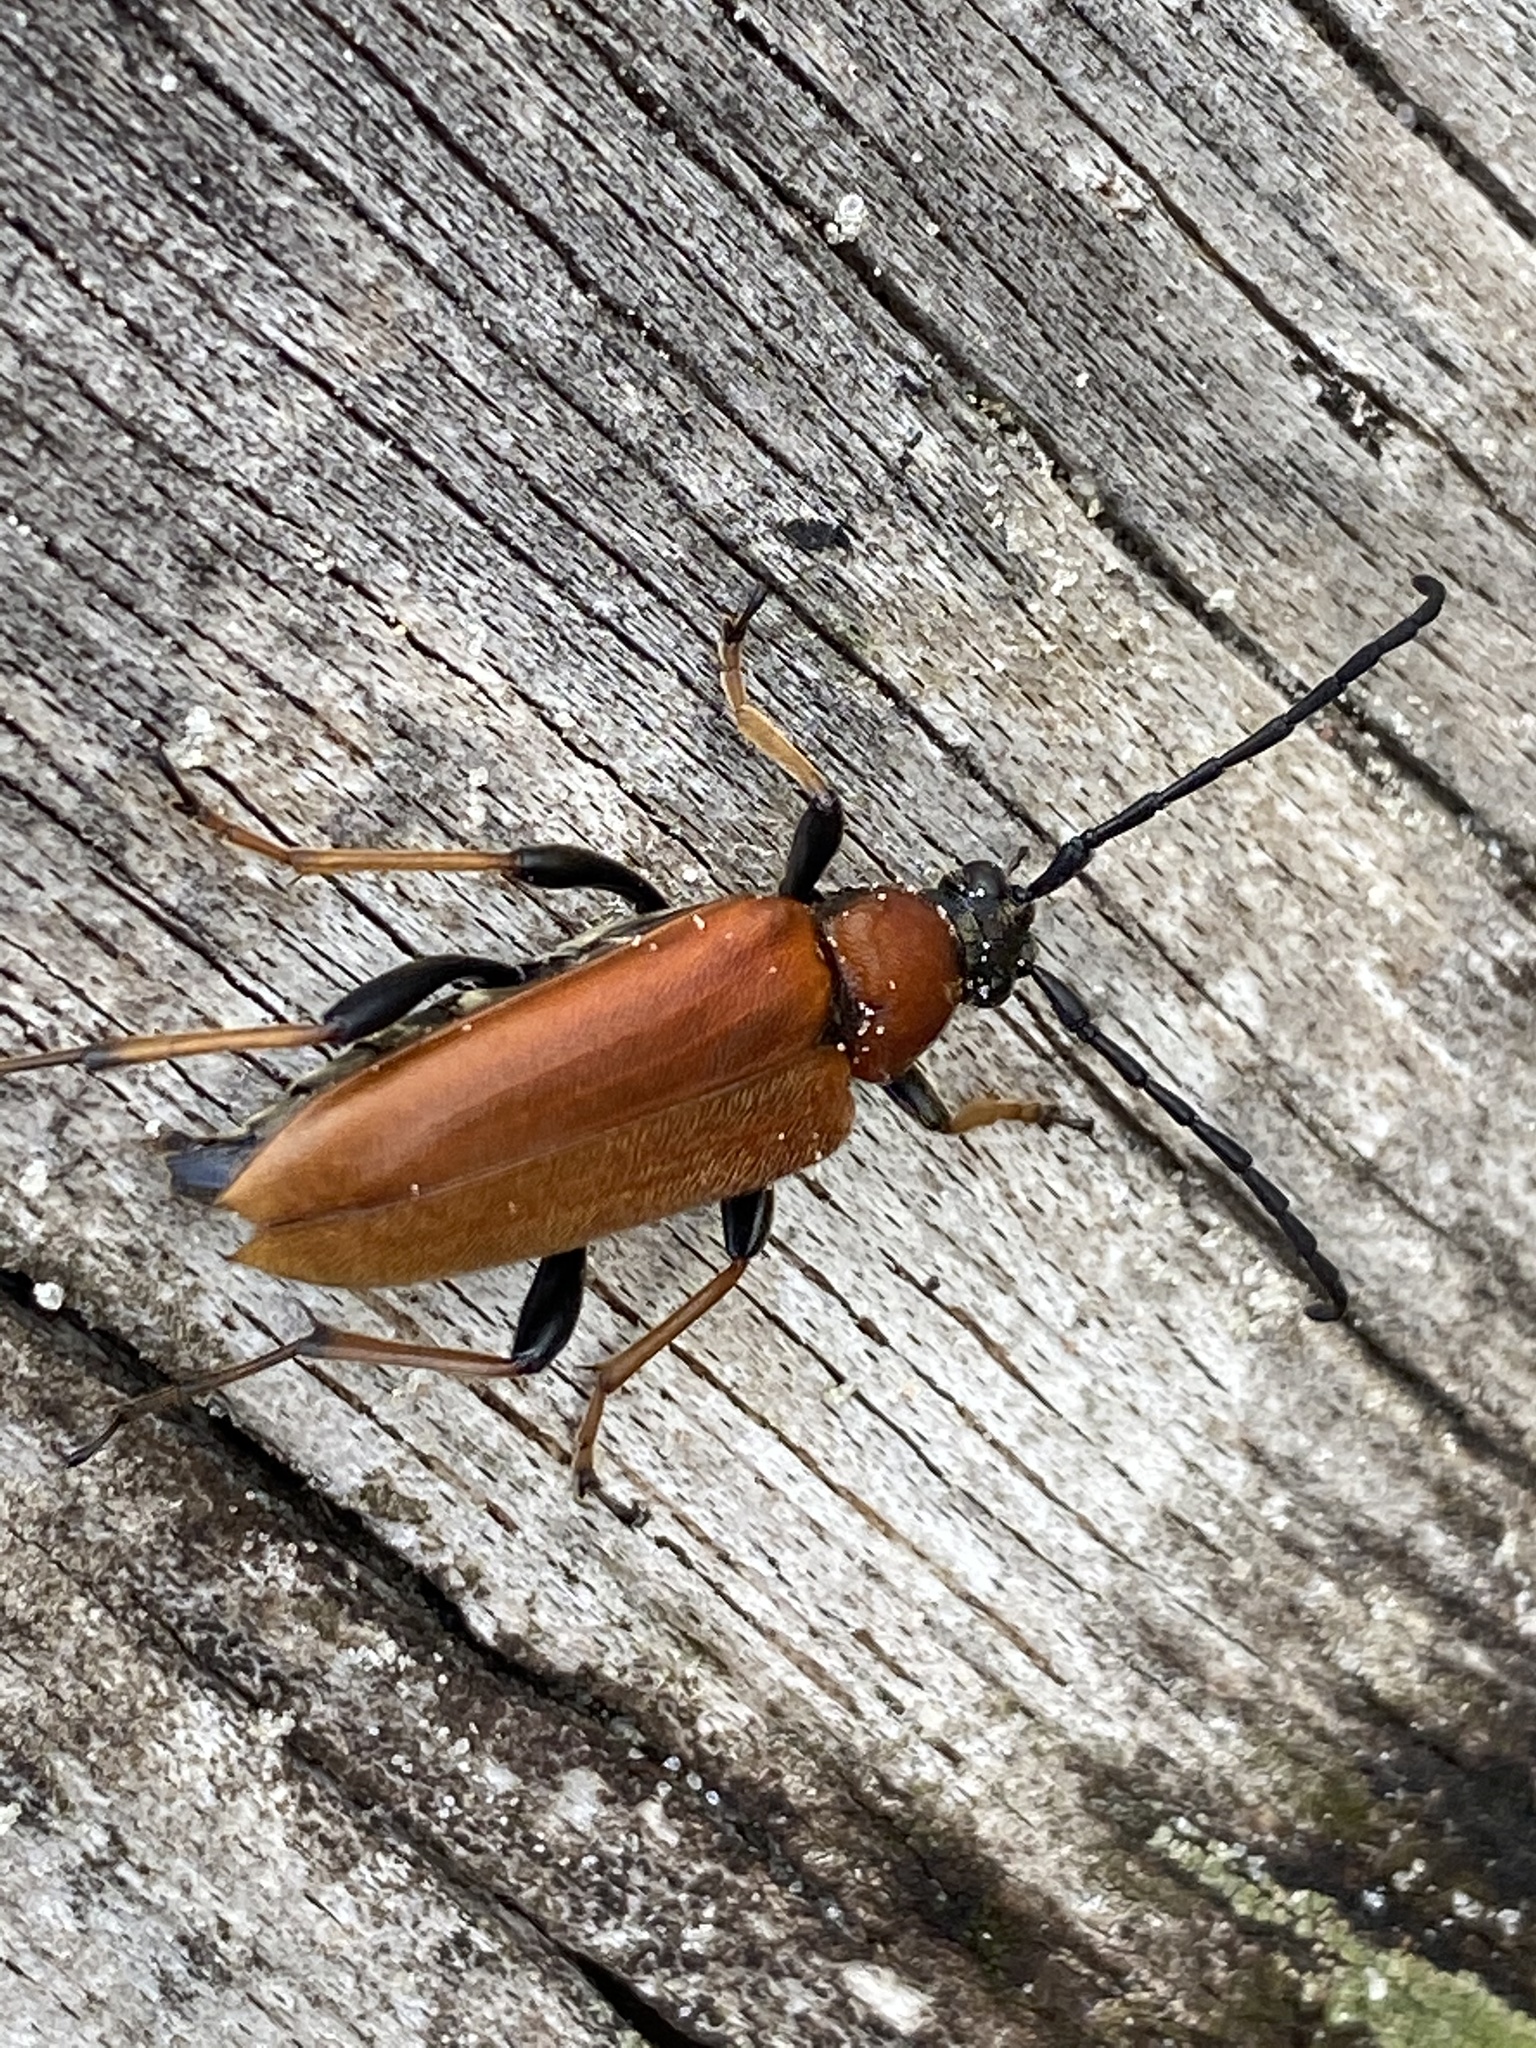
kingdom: Animalia
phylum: Arthropoda
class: Insecta
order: Coleoptera
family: Cerambycidae
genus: Stictoleptura
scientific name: Stictoleptura rubra
